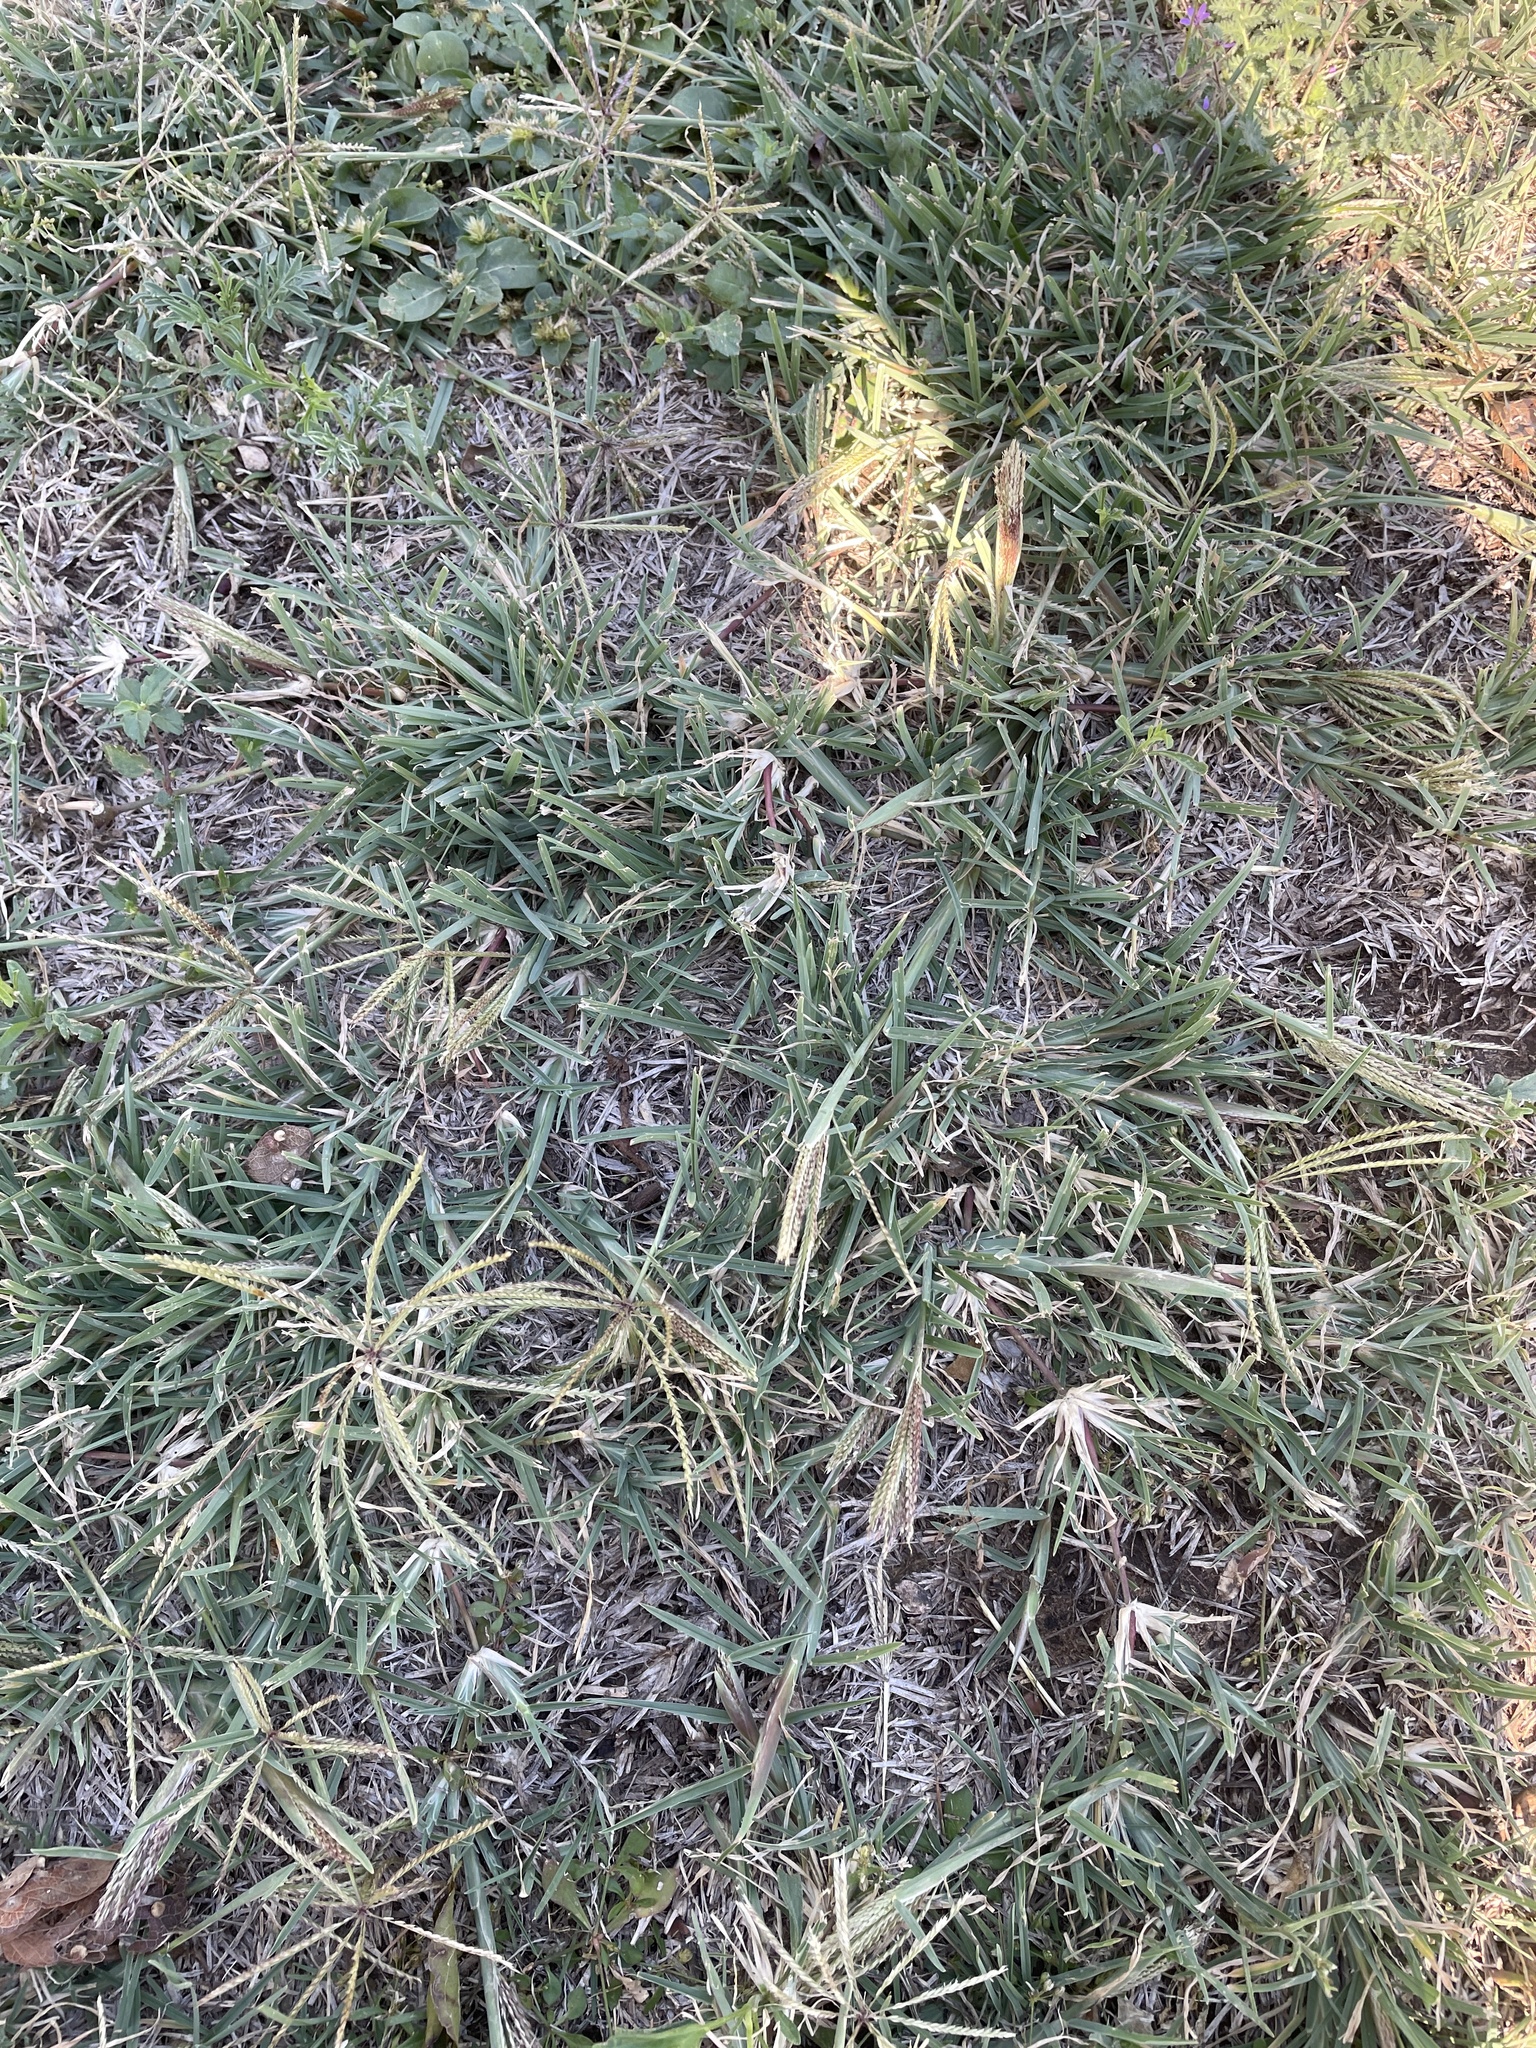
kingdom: Plantae
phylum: Tracheophyta
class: Liliopsida
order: Poales
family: Poaceae
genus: Chloris
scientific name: Chloris verticillata
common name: Tumble windmill grass
